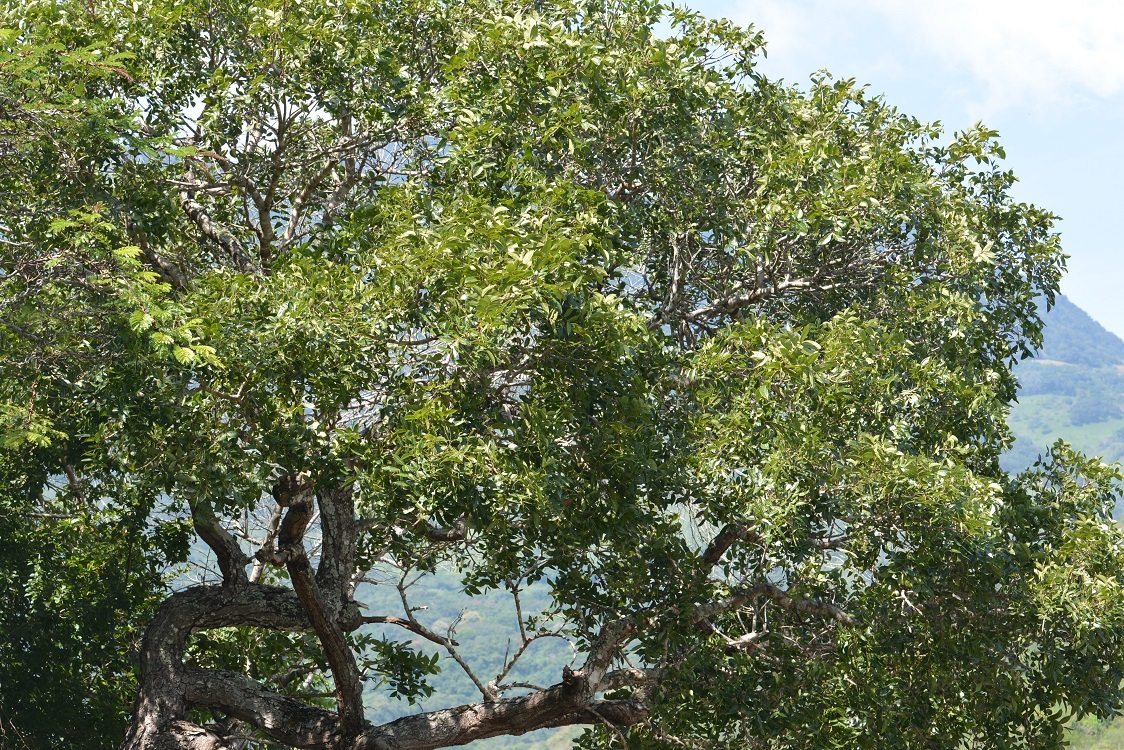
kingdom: Plantae
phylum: Tracheophyta
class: Magnoliopsida
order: Sapindales
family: Meliaceae
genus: Swietenia
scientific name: Swietenia humilis
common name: Pacific coast mahogany
